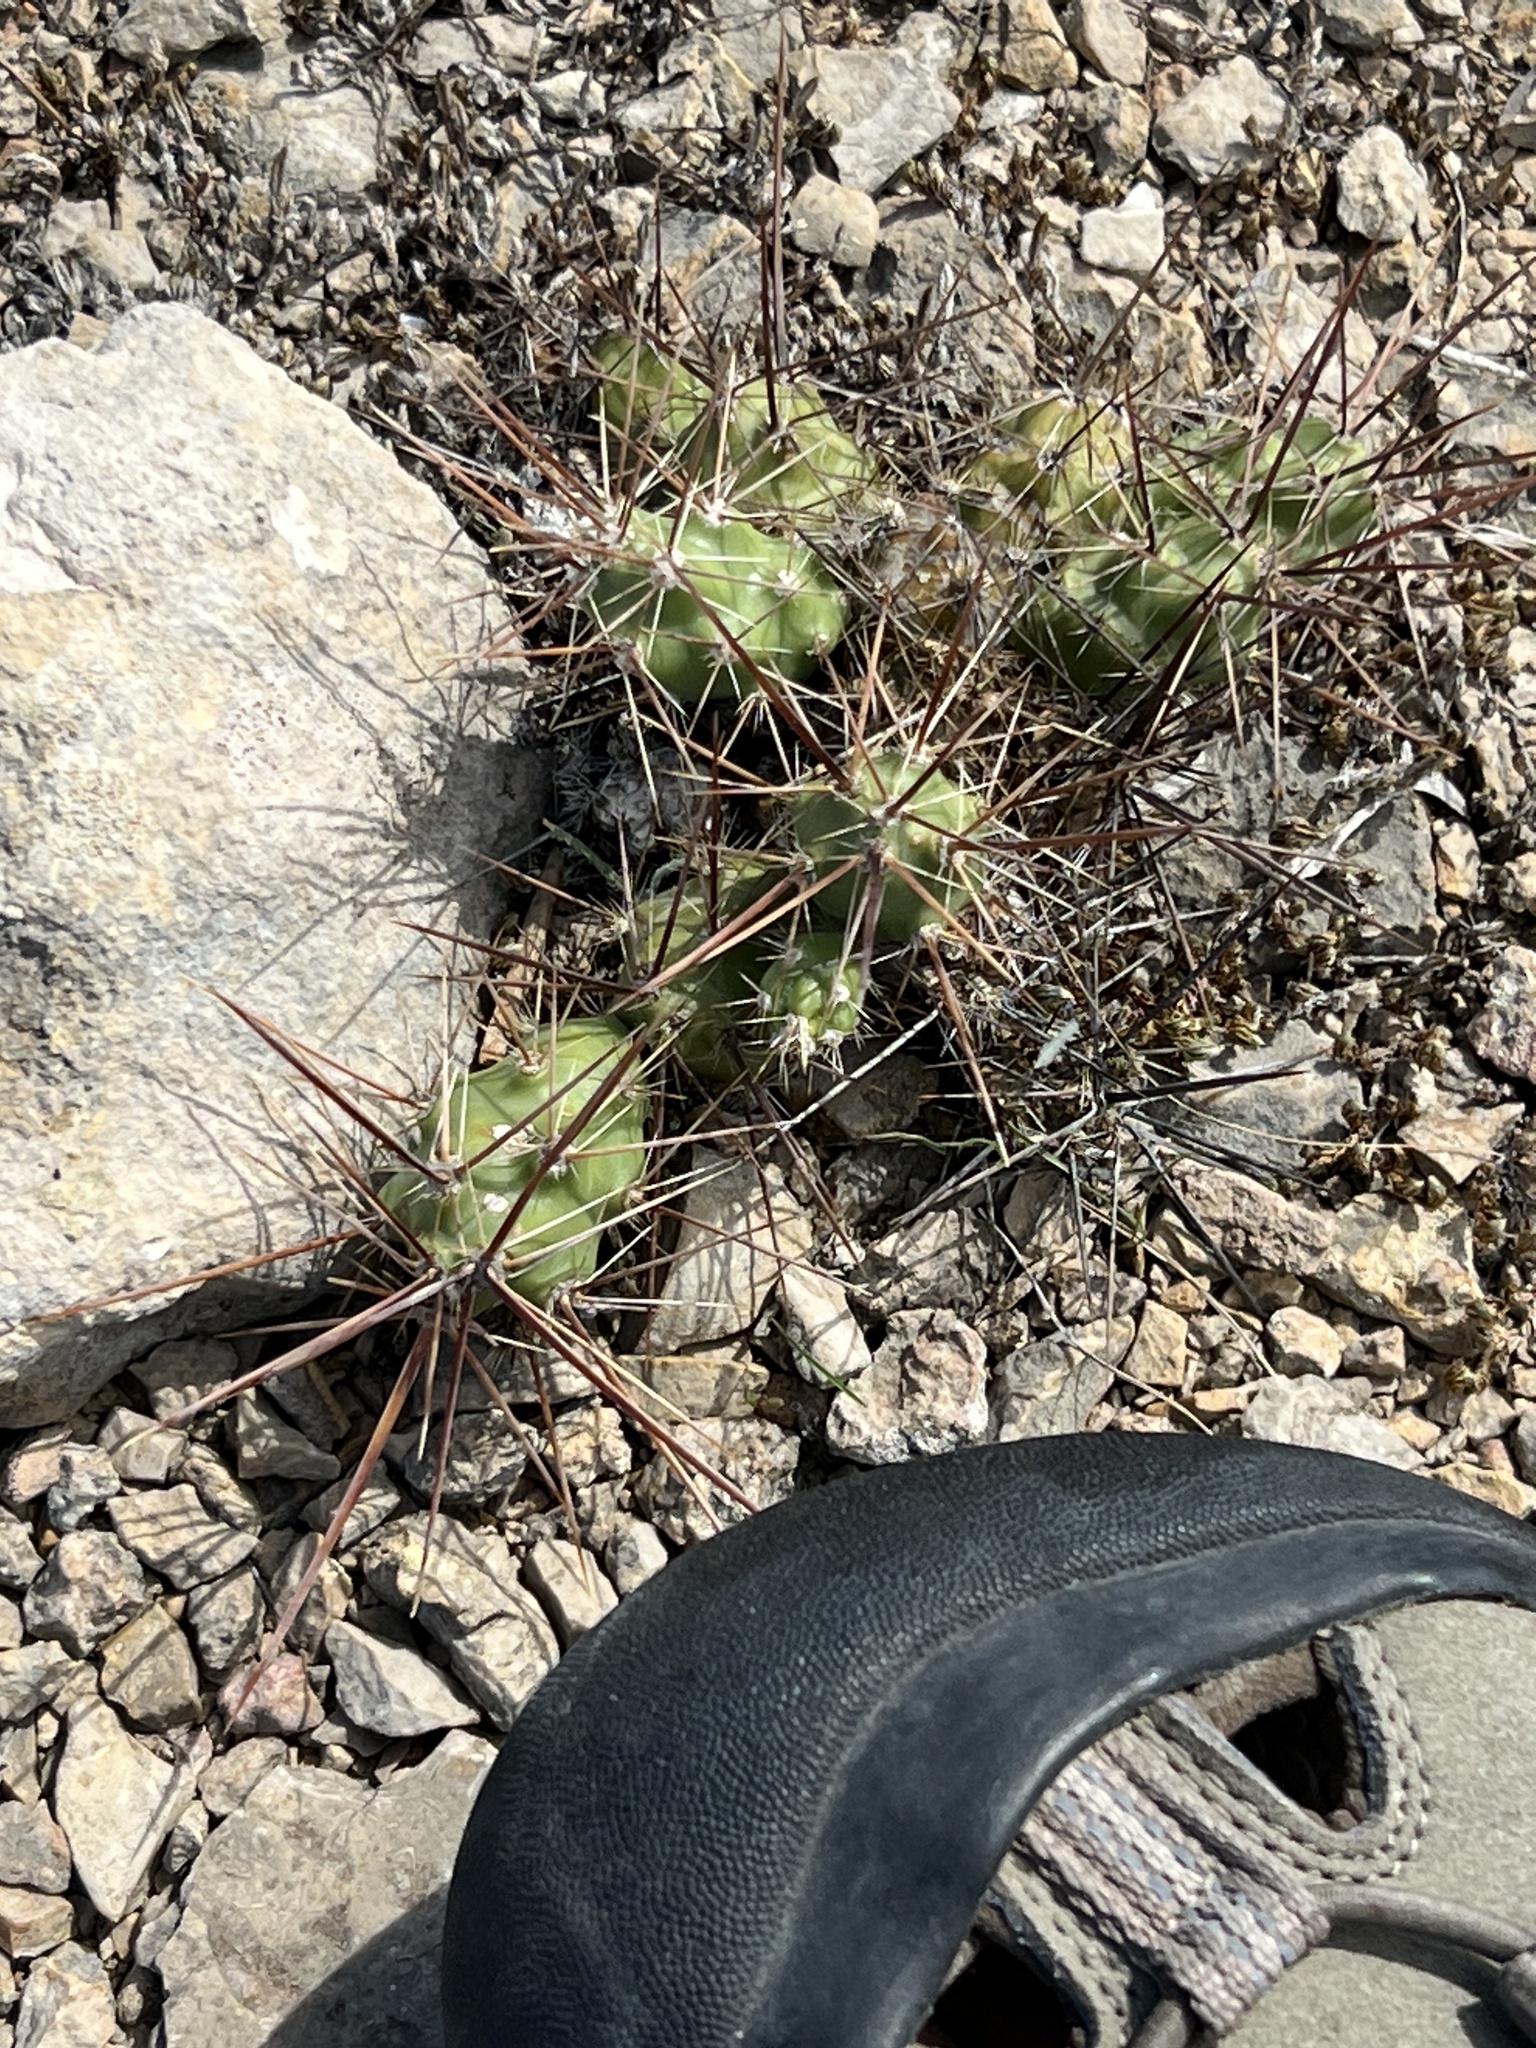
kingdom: Plantae
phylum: Tracheophyta
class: Magnoliopsida
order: Caryophyllales
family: Cactaceae
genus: Grusonia
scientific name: Grusonia schottii
